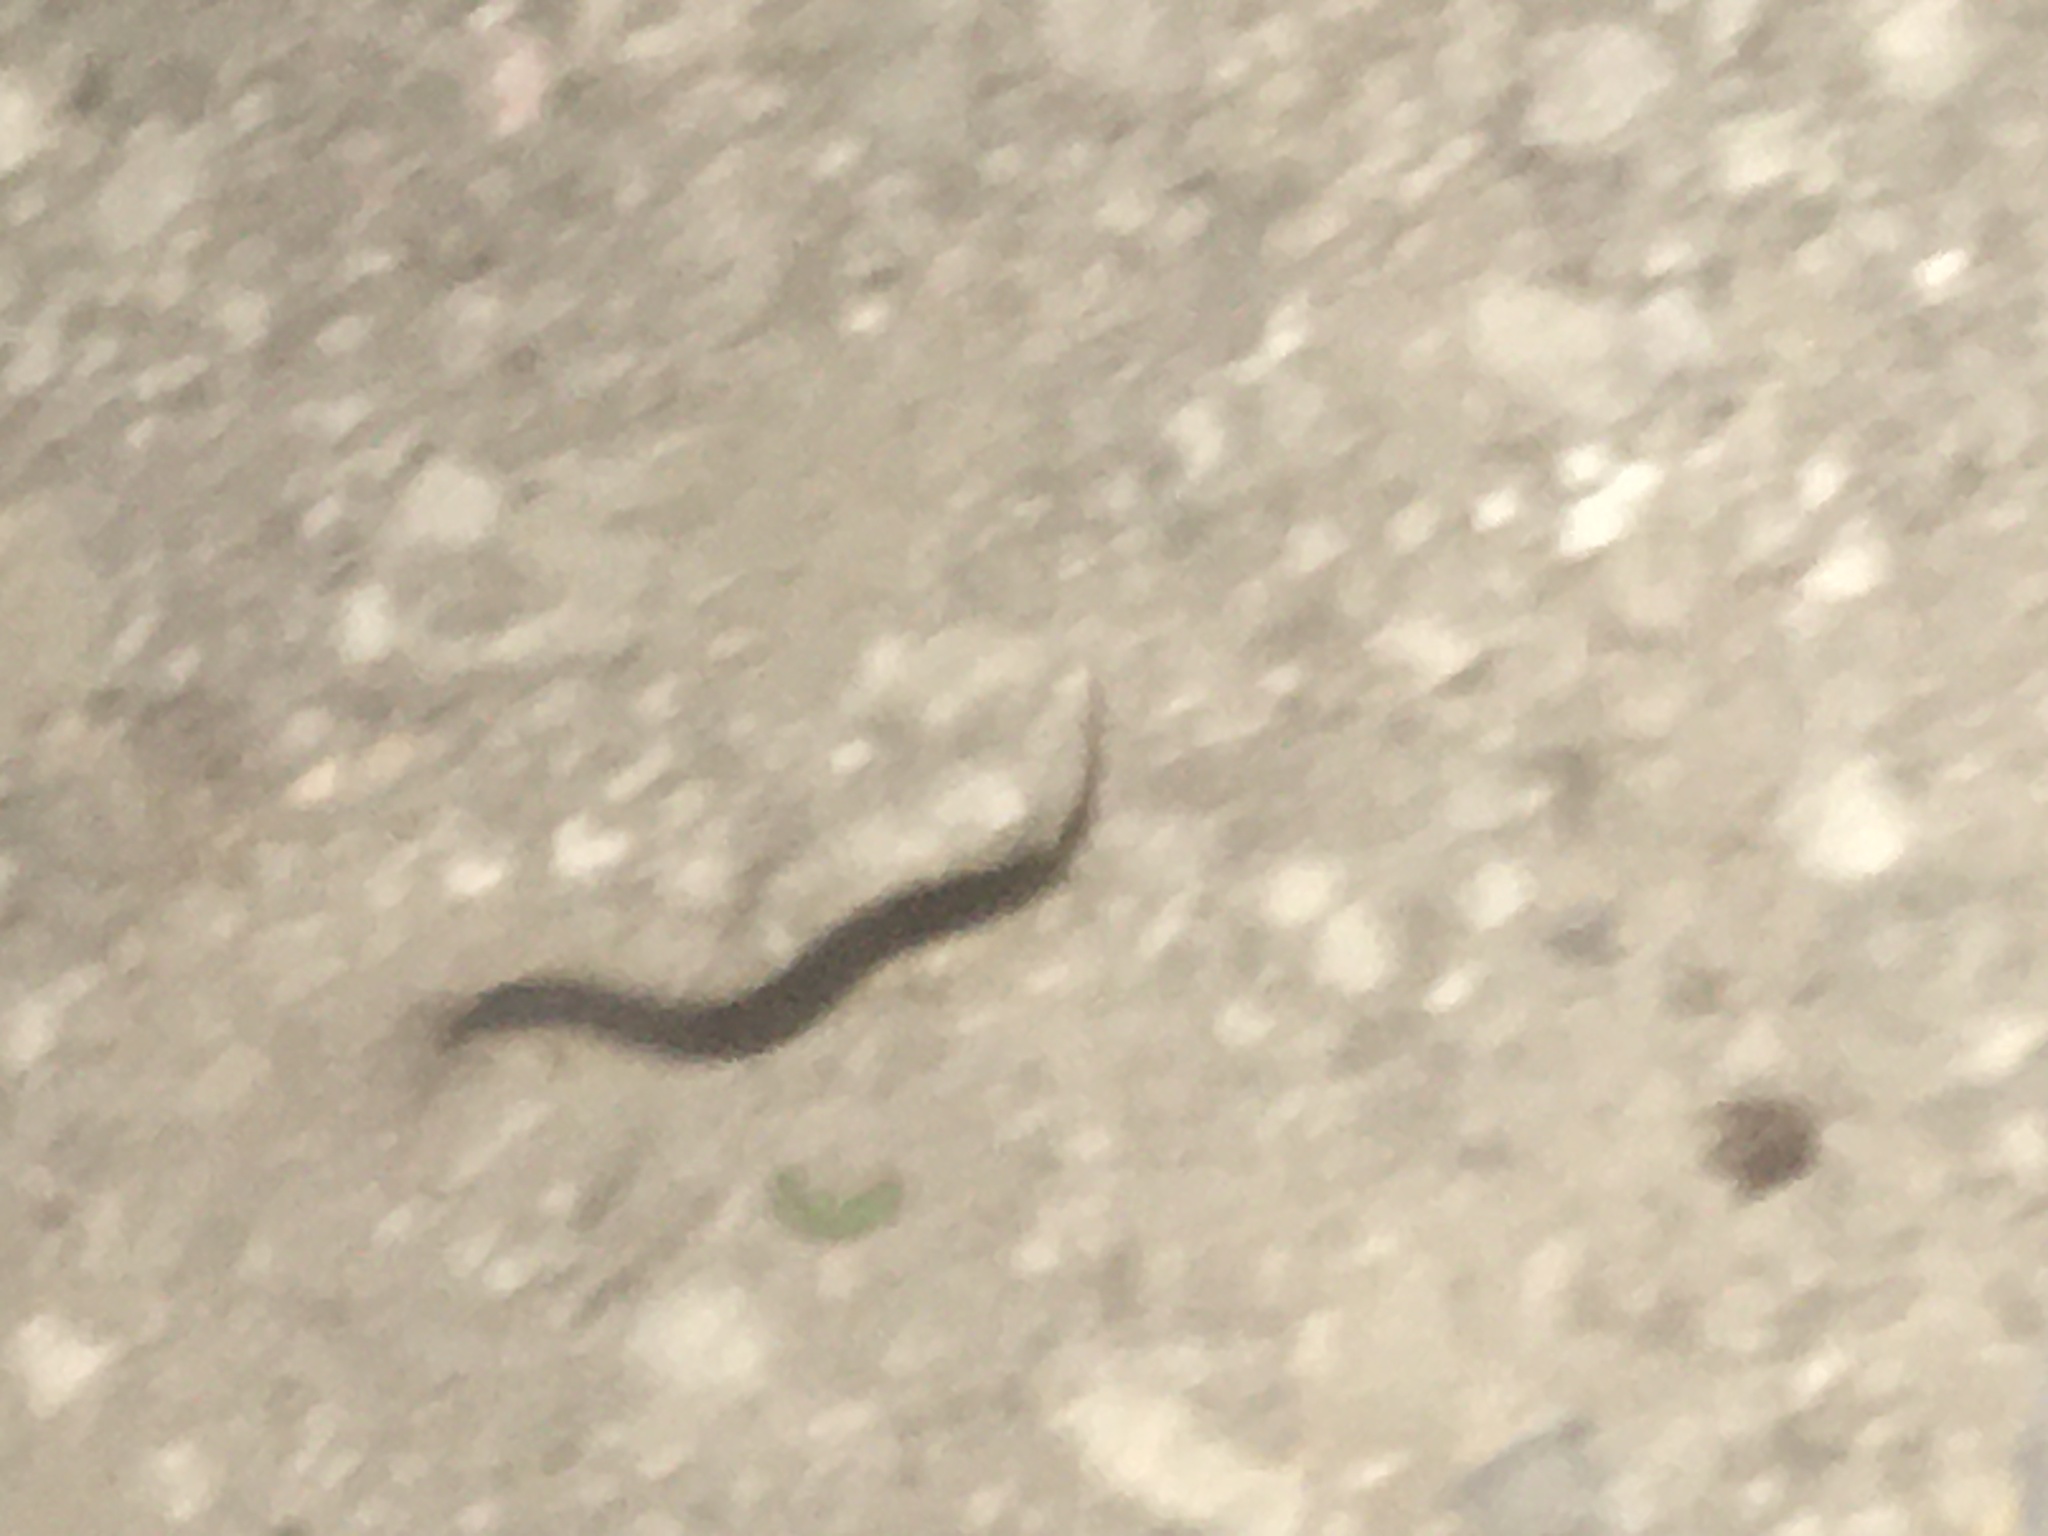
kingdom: Animalia
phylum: Arthropoda
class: Chilopoda
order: Scolopendromorpha
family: Scolopendridae
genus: Scolopendra
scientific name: Scolopendra cingulata
